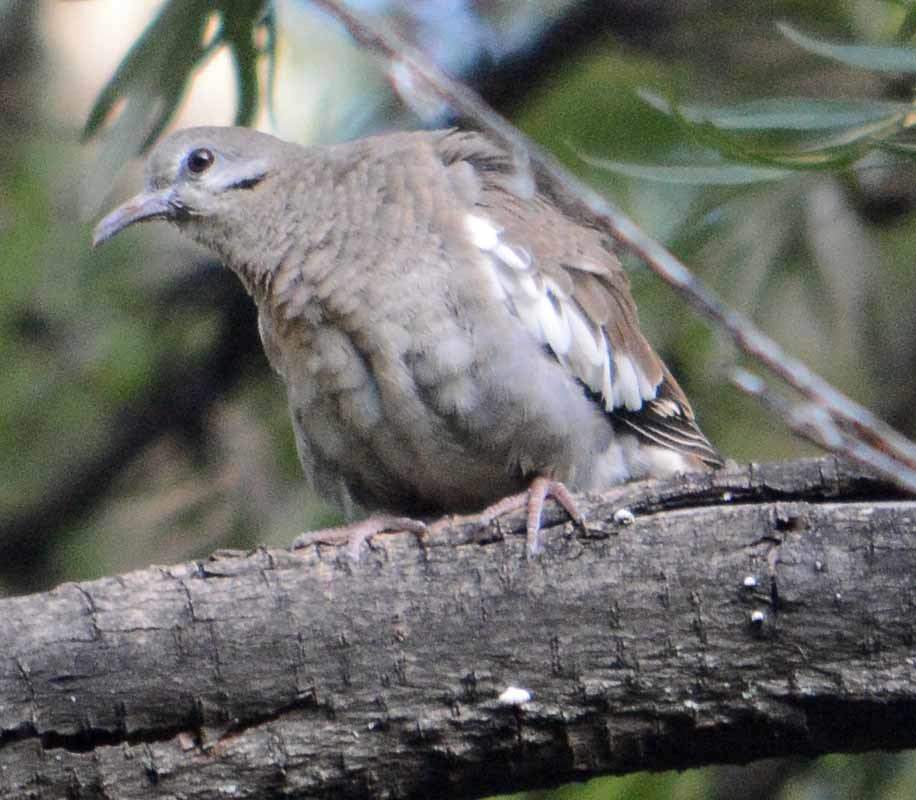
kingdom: Animalia
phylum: Chordata
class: Aves
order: Columbiformes
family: Columbidae
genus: Zenaida
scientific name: Zenaida asiatica
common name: White-winged dove
